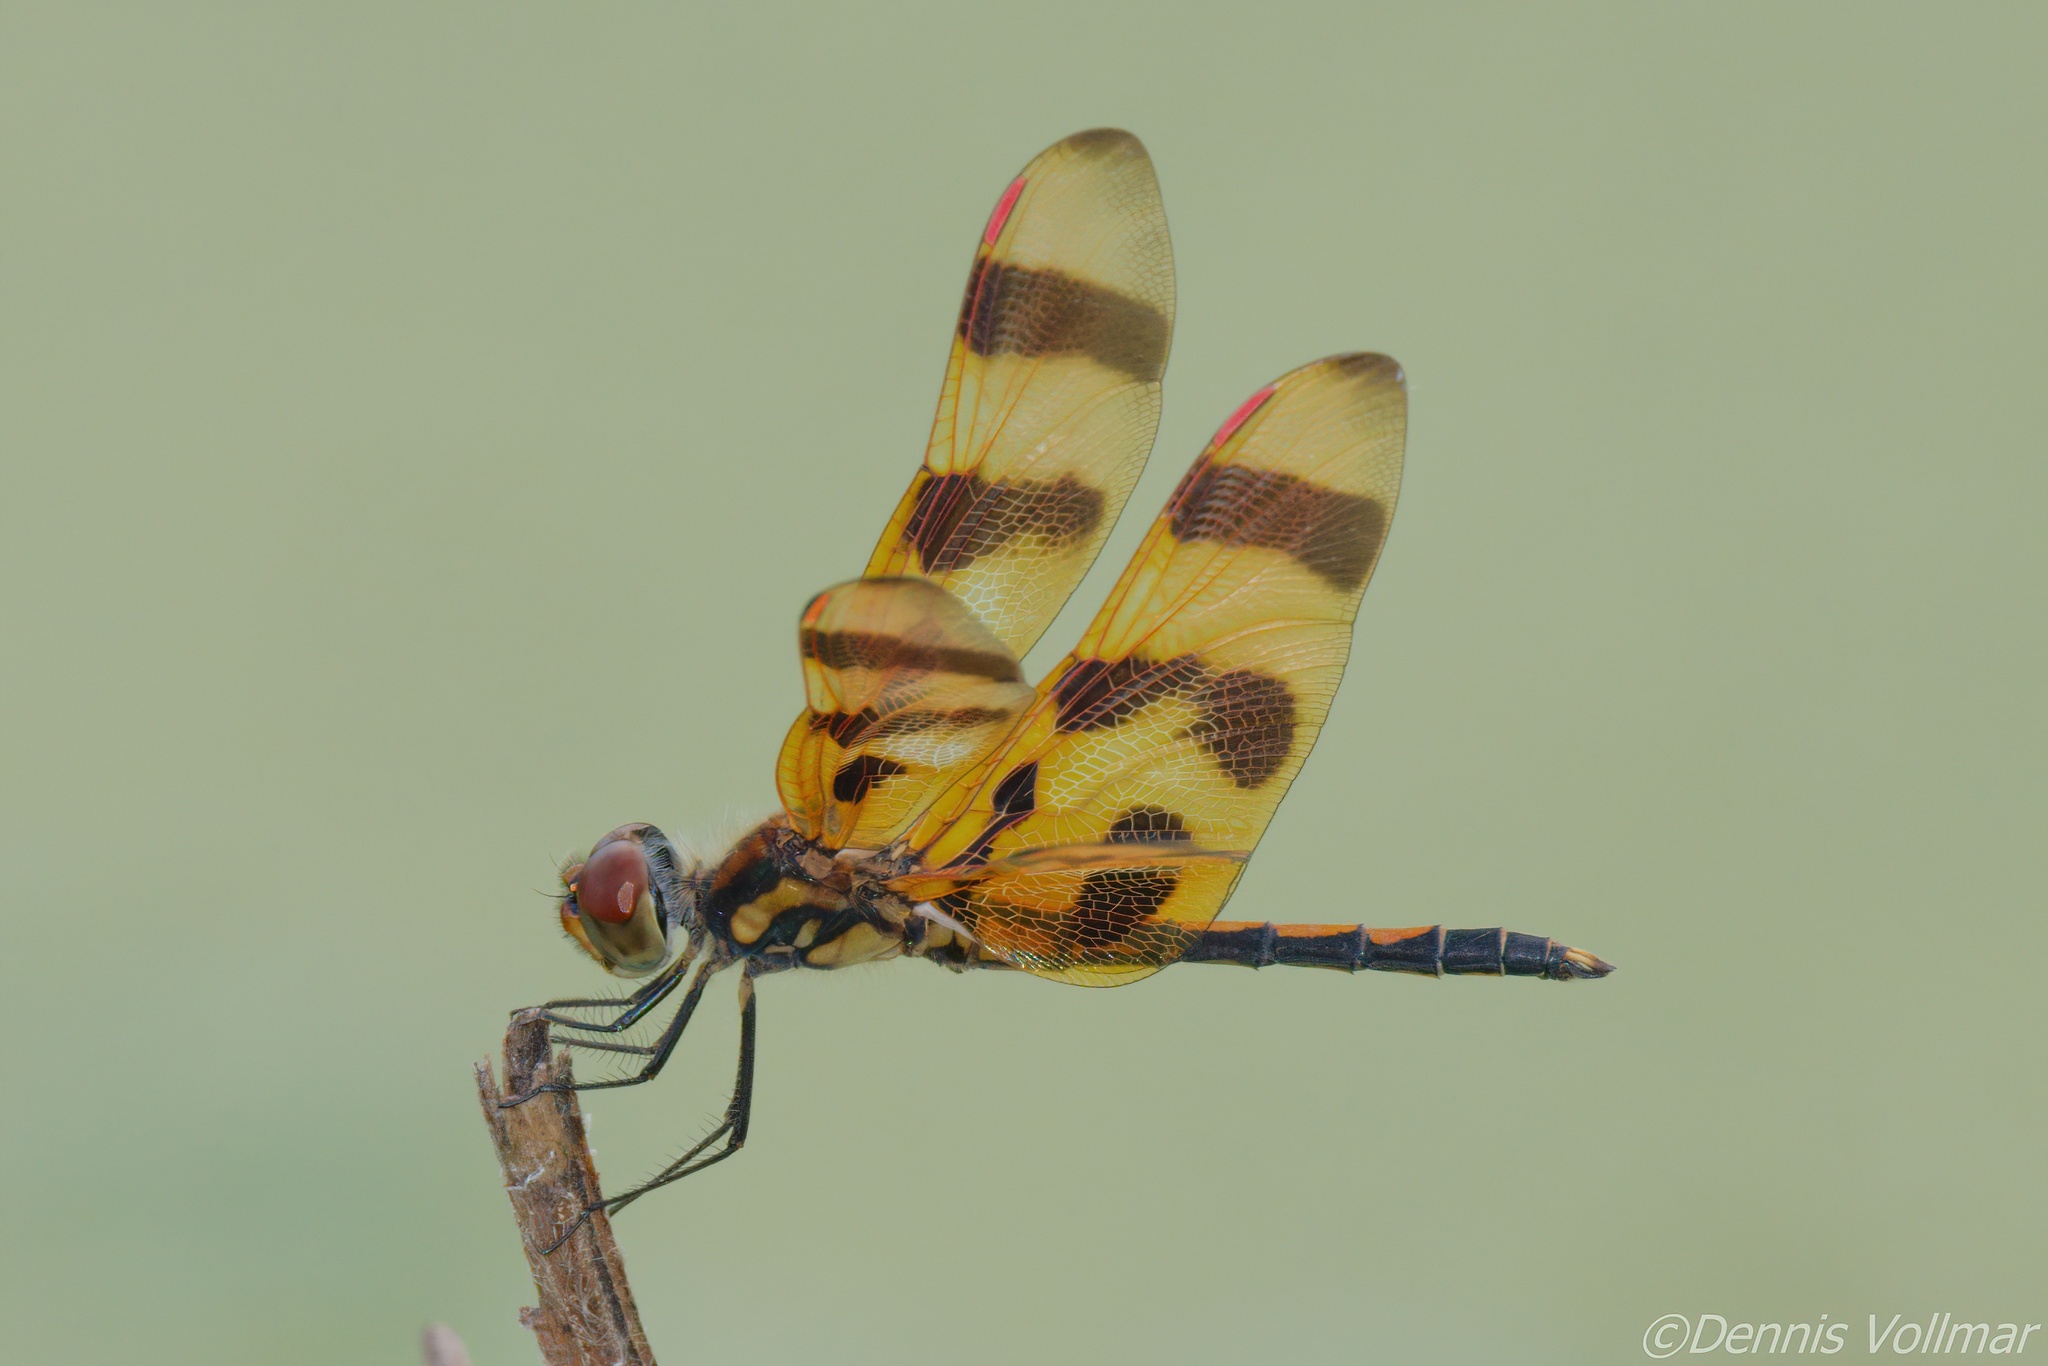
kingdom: Animalia
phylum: Arthropoda
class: Insecta
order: Odonata
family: Libellulidae
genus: Celithemis
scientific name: Celithemis eponina
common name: Halloween pennant
